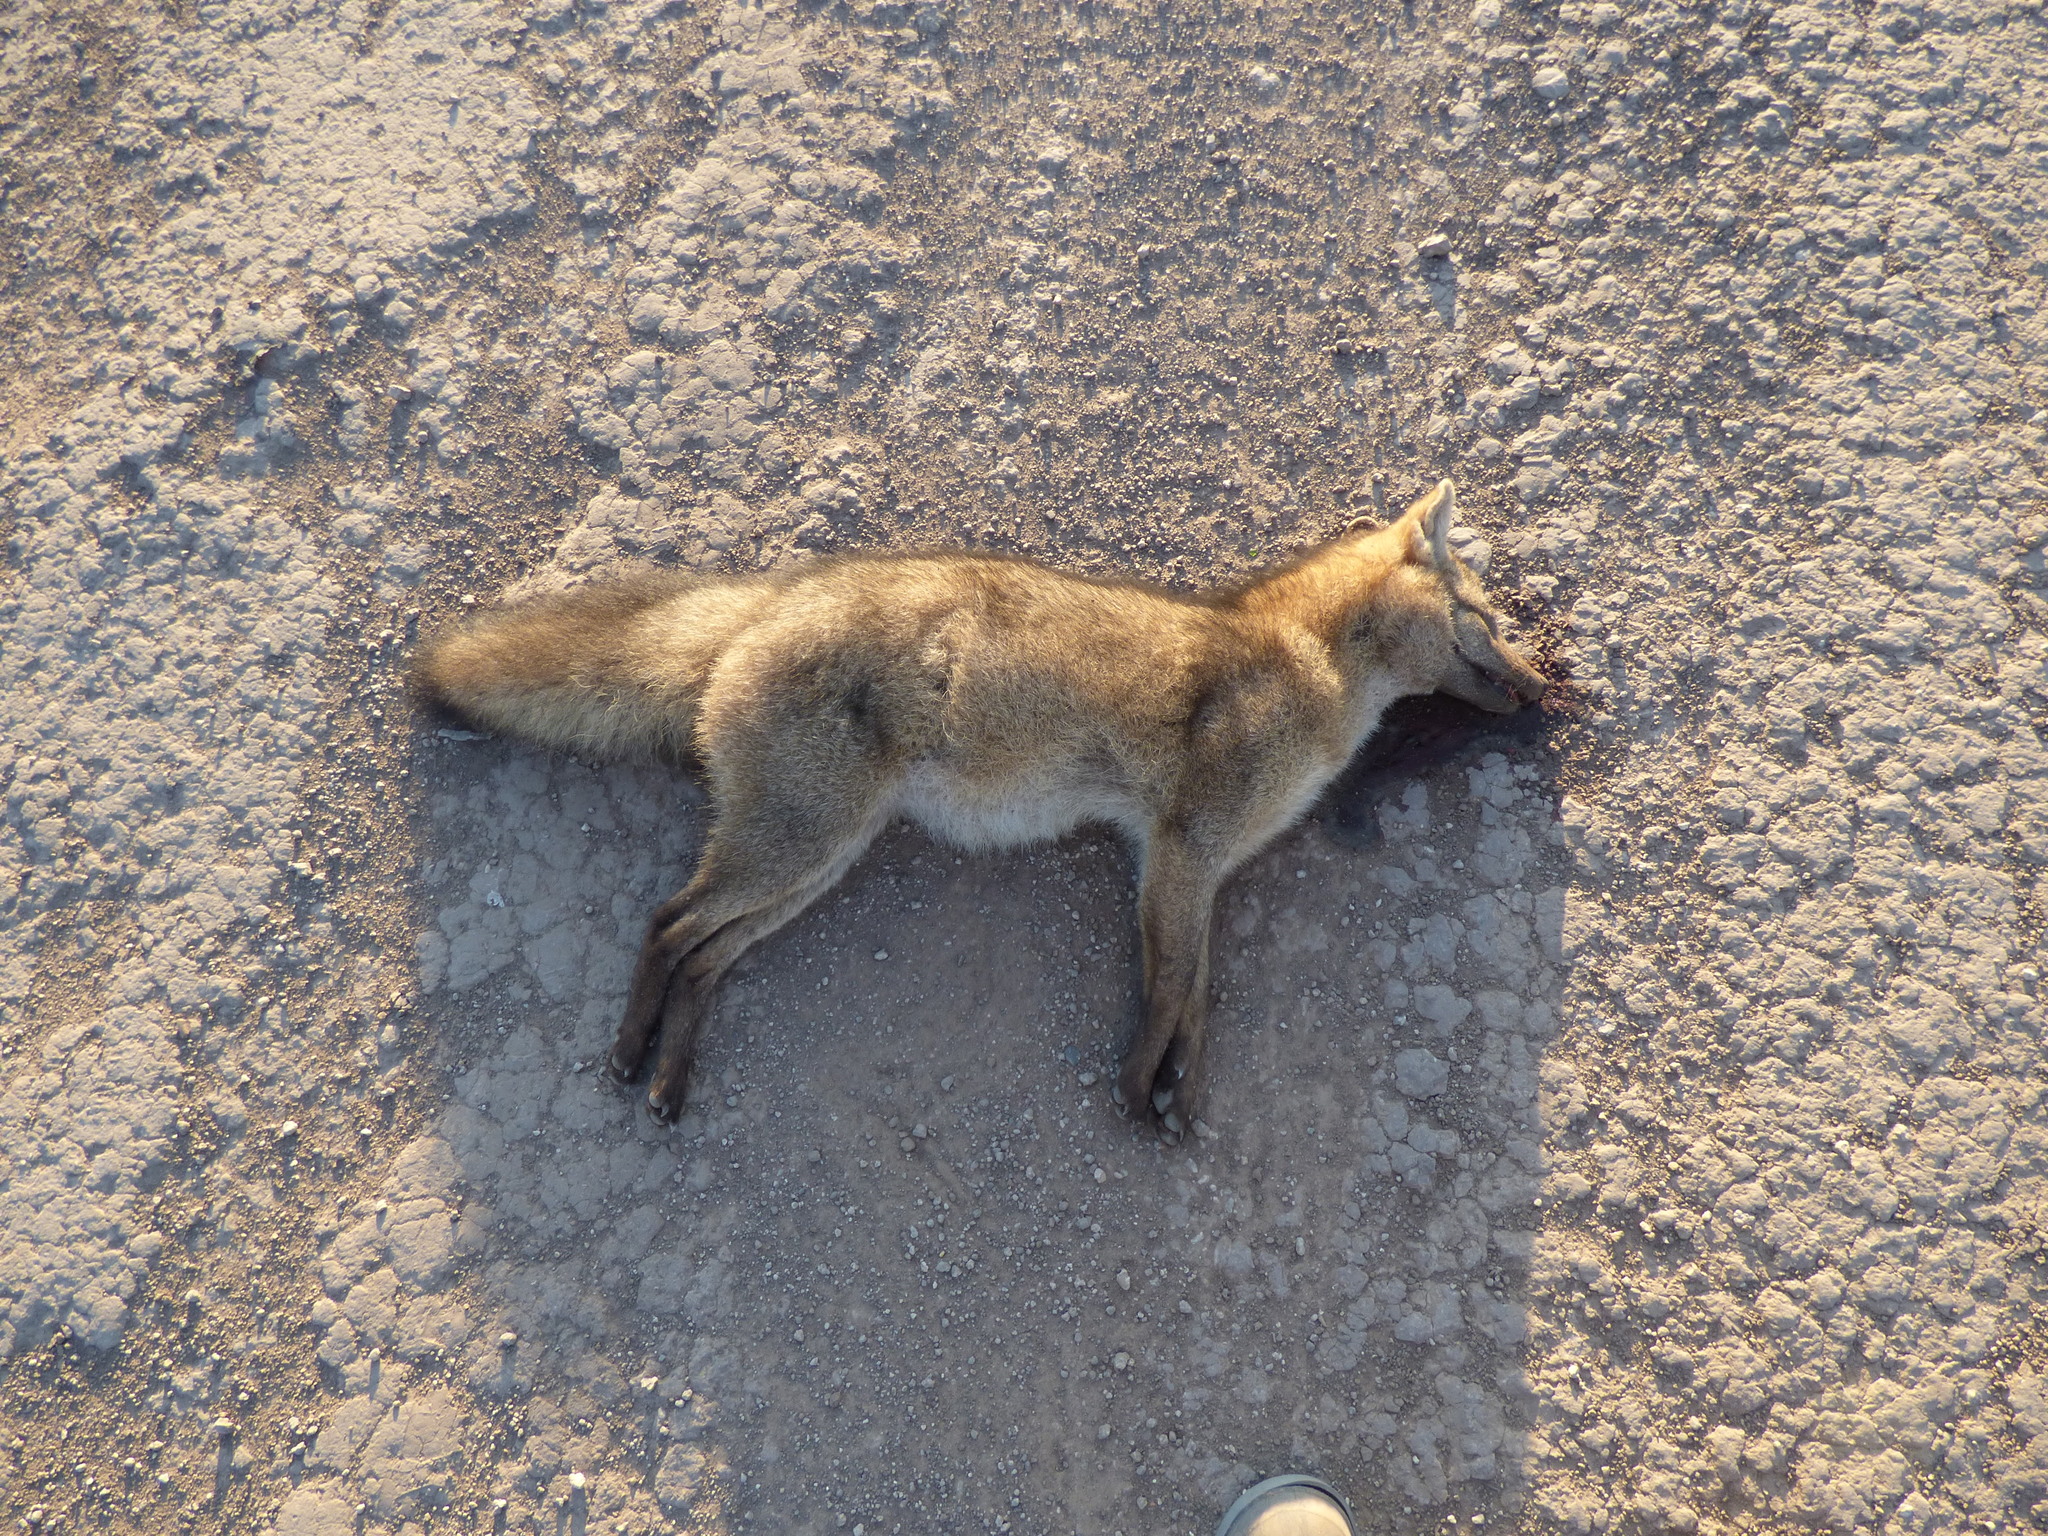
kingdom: Animalia
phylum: Chordata
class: Mammalia
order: Carnivora
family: Canidae
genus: Cerdocyon
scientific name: Cerdocyon thous
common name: Crab-eating fox
